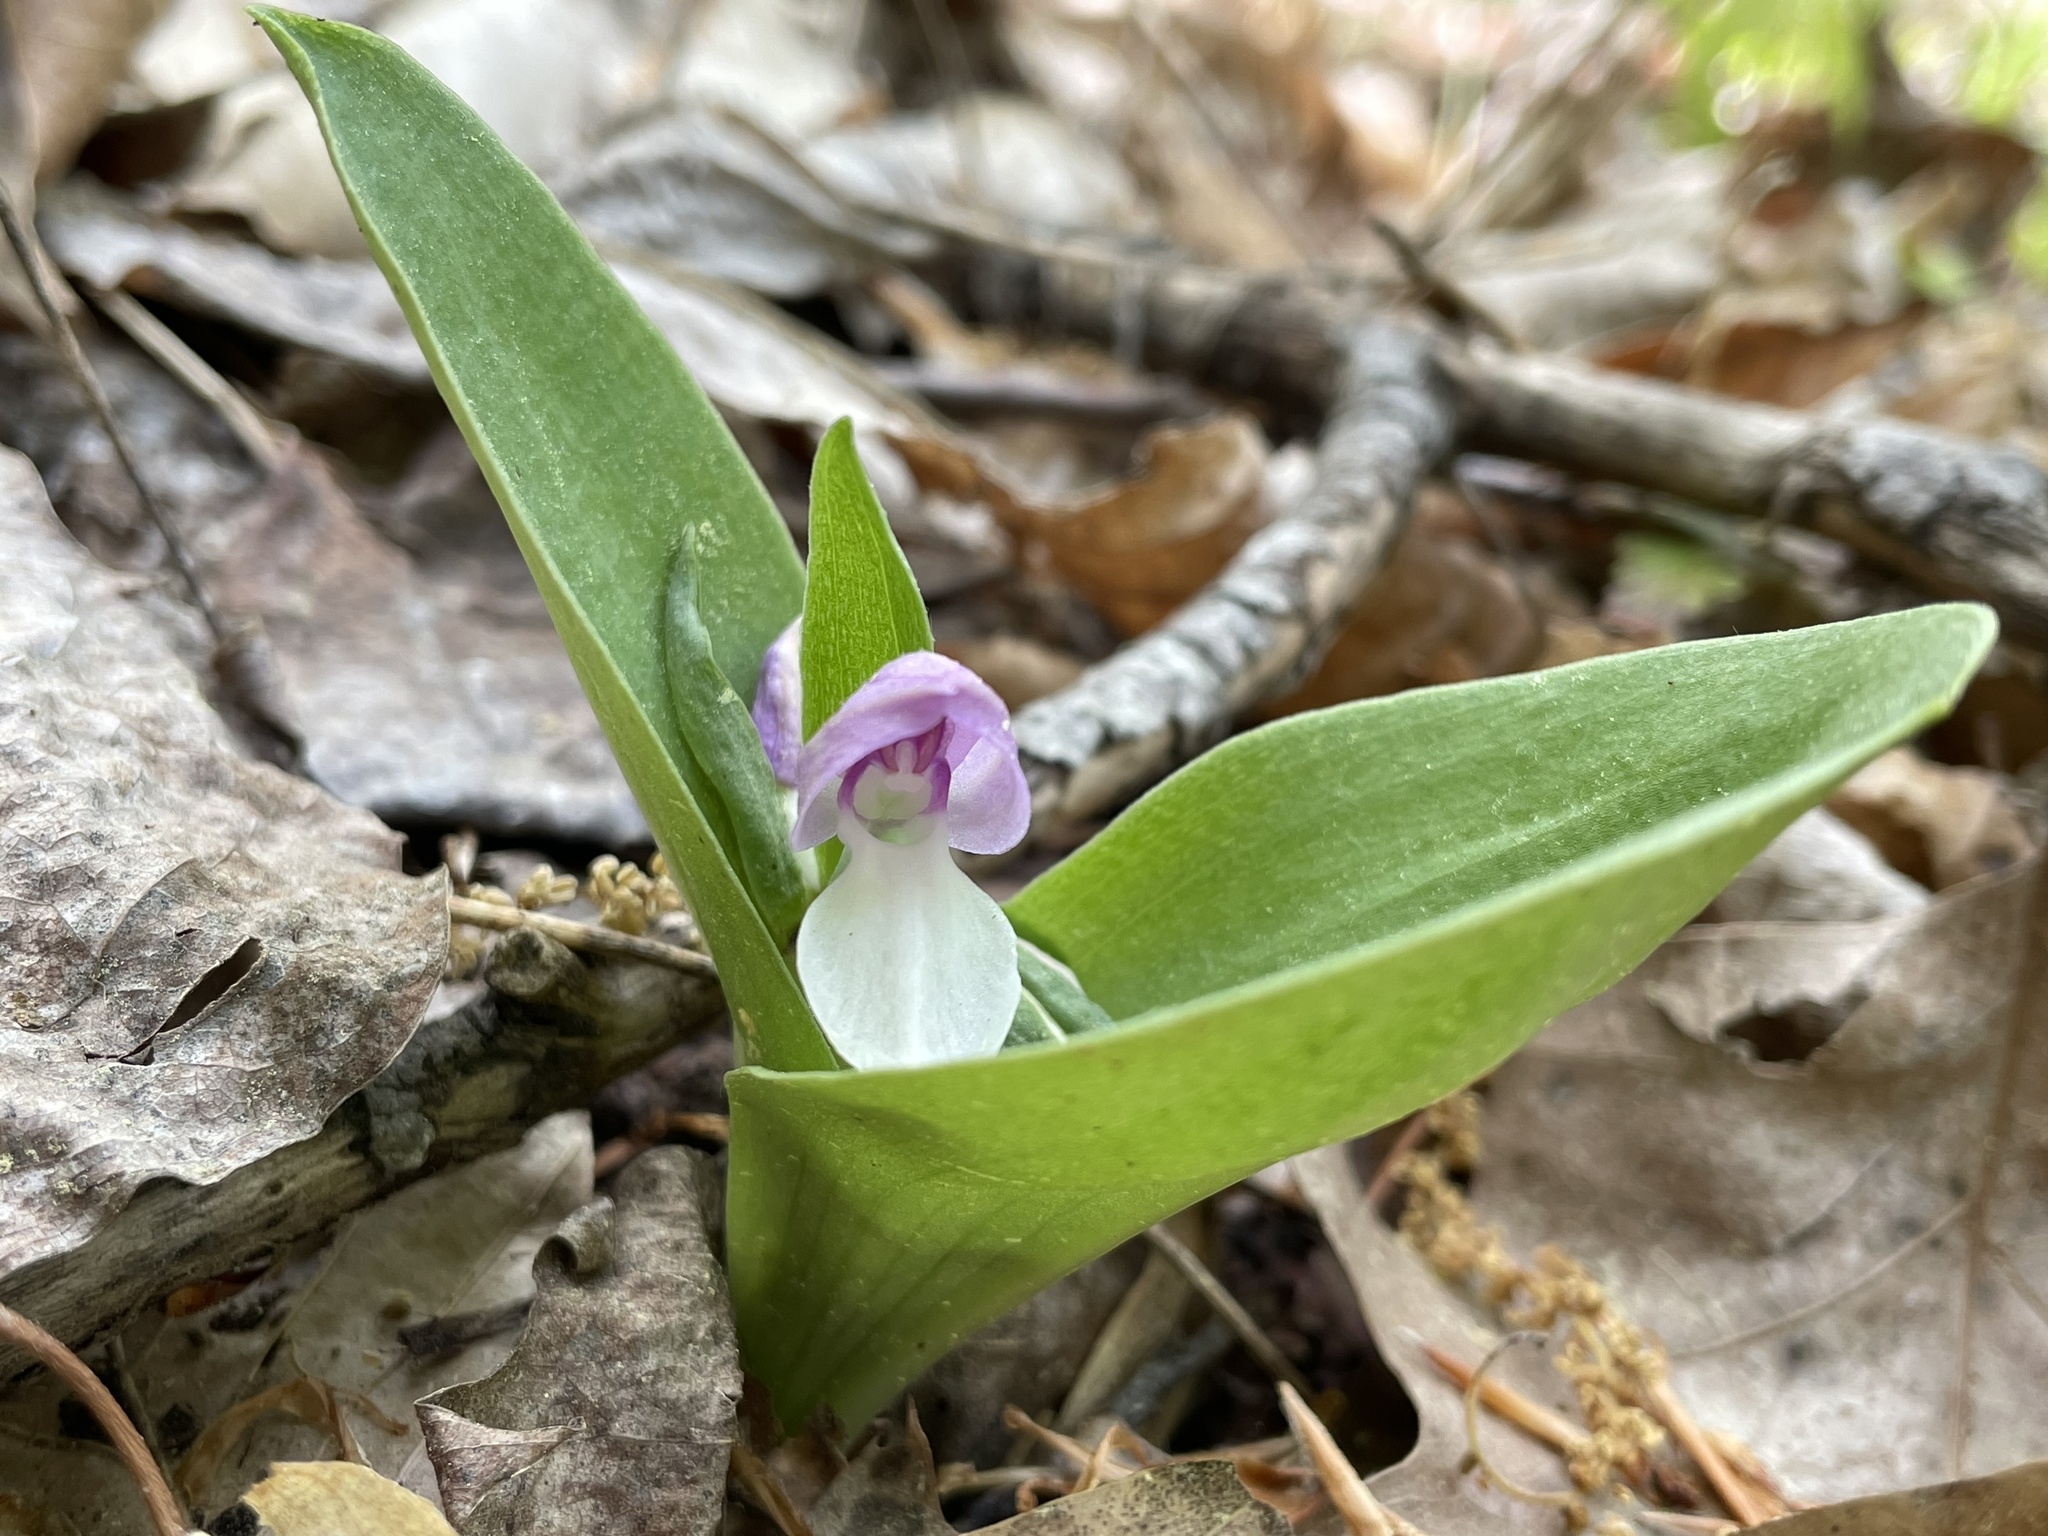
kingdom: Plantae
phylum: Tracheophyta
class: Liliopsida
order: Asparagales
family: Orchidaceae
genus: Galearis
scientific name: Galearis spectabilis
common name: Purple-hooded orchis
